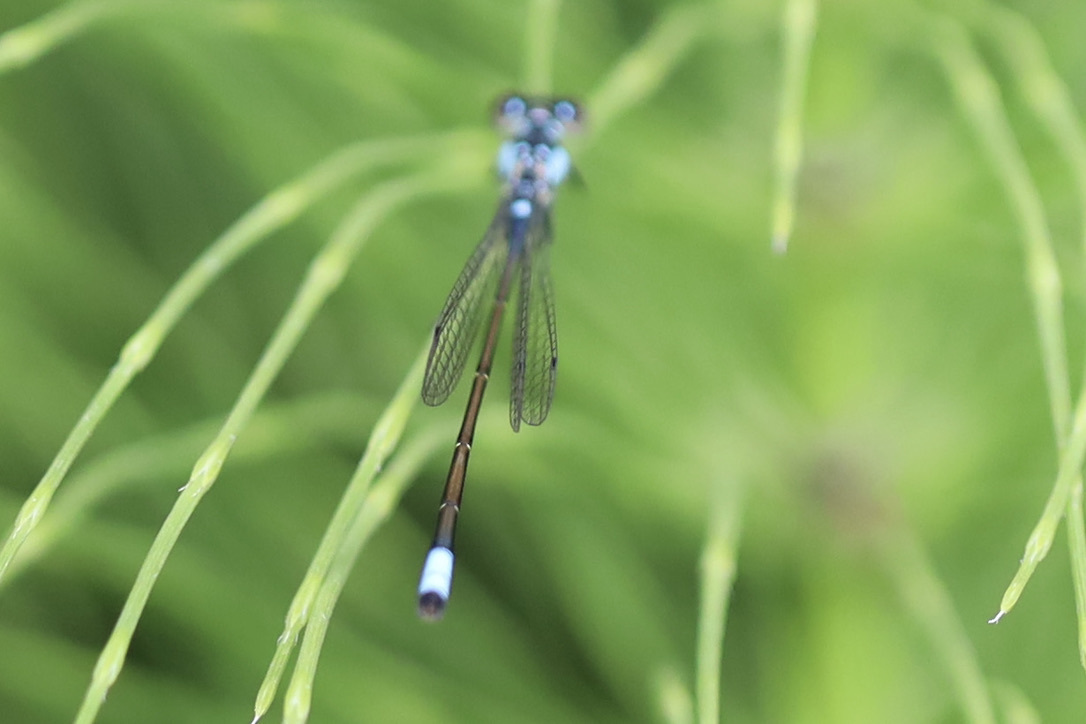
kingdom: Animalia
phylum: Arthropoda
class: Insecta
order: Odonata
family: Coenagrionidae
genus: Ischnura
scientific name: Ischnura cervula
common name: Pacific forktail
